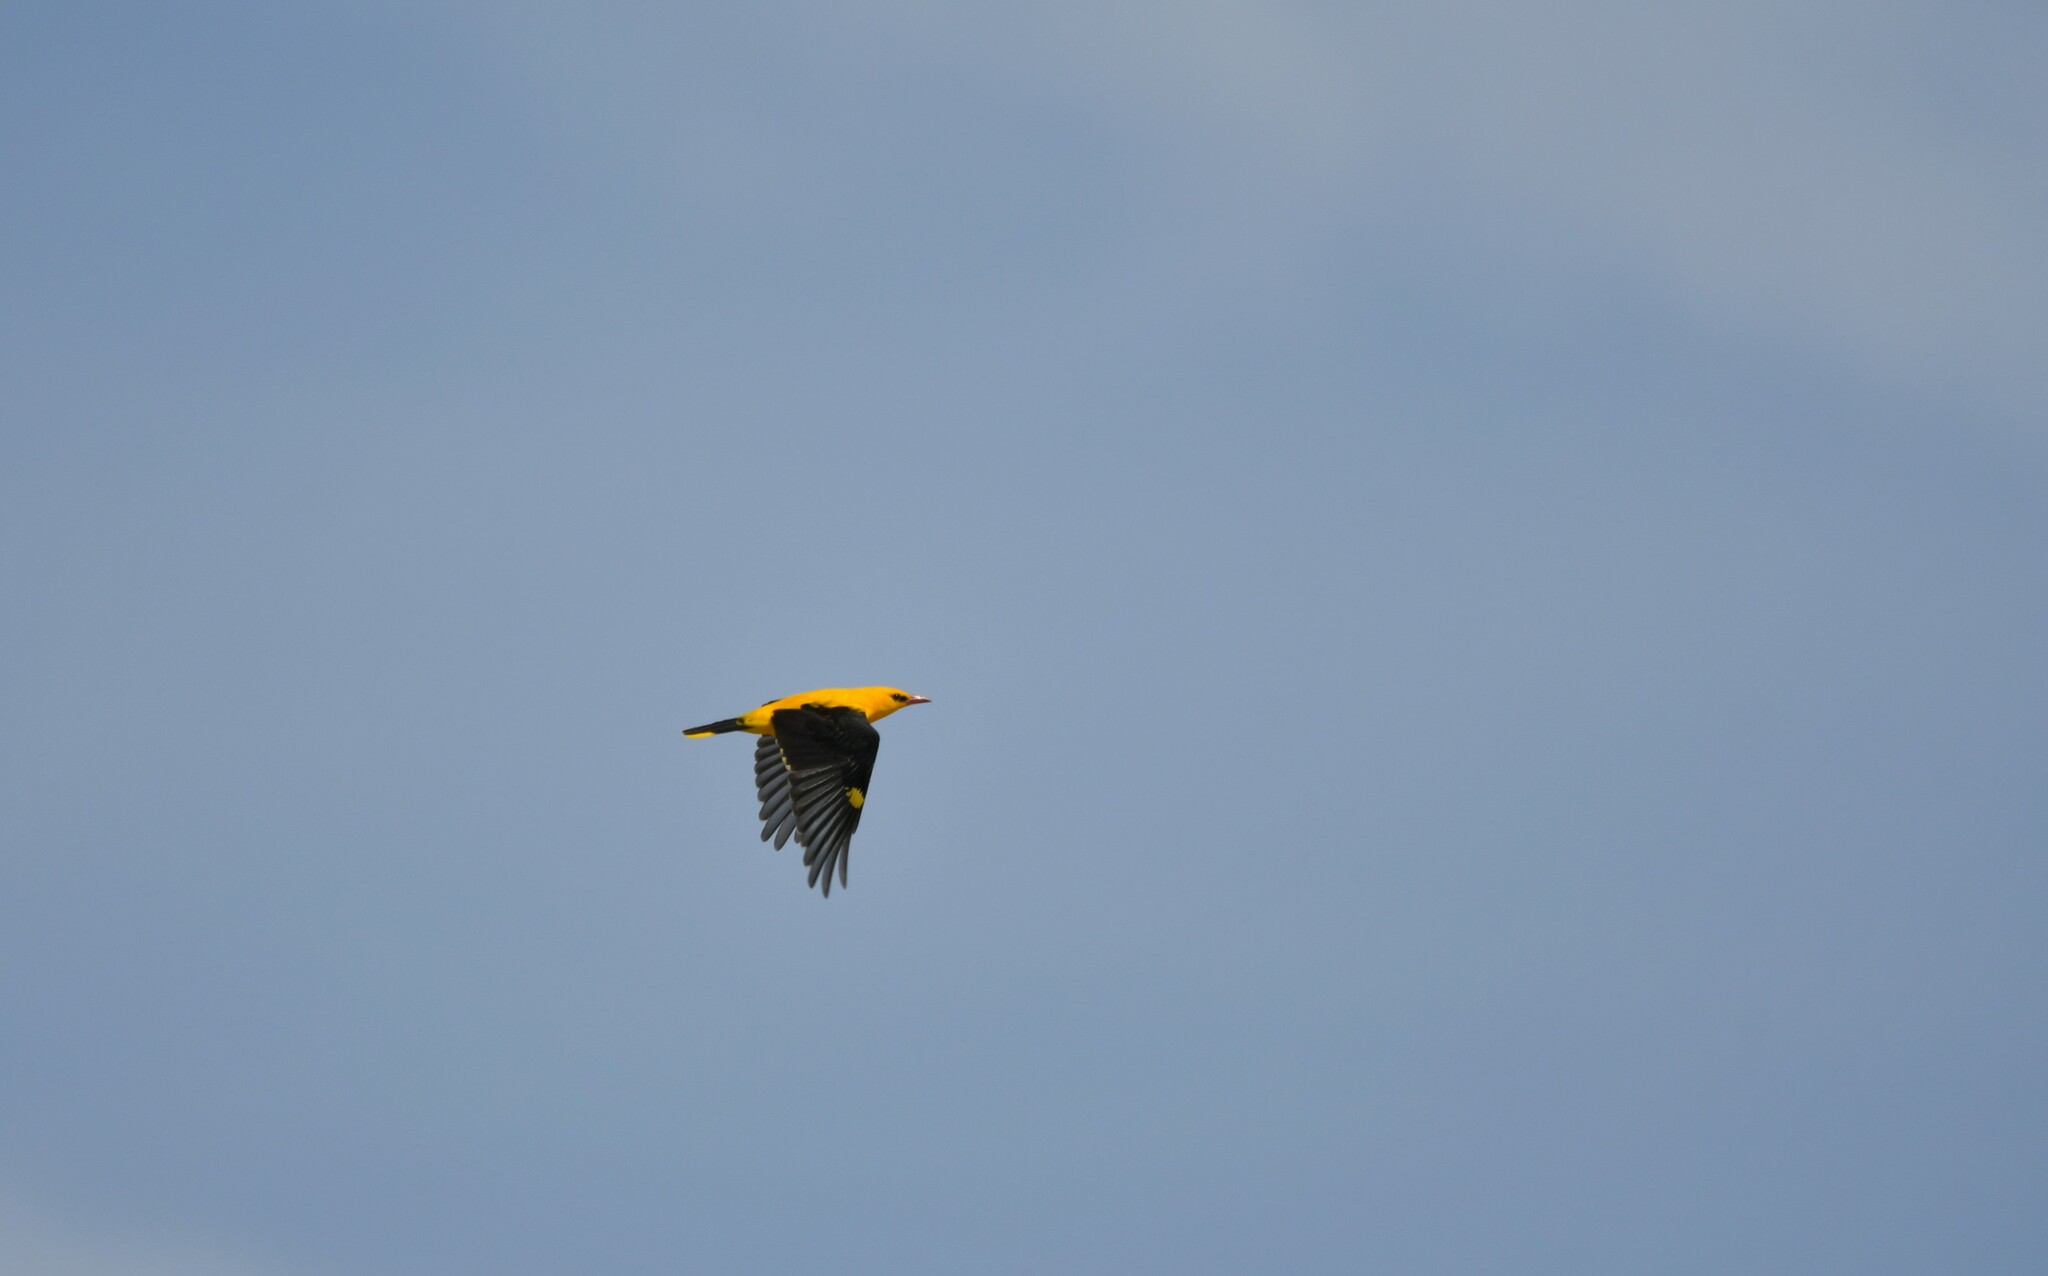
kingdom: Animalia
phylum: Chordata
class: Aves
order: Passeriformes
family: Oriolidae
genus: Oriolus
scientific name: Oriolus oriolus
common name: Eurasian golden oriole
